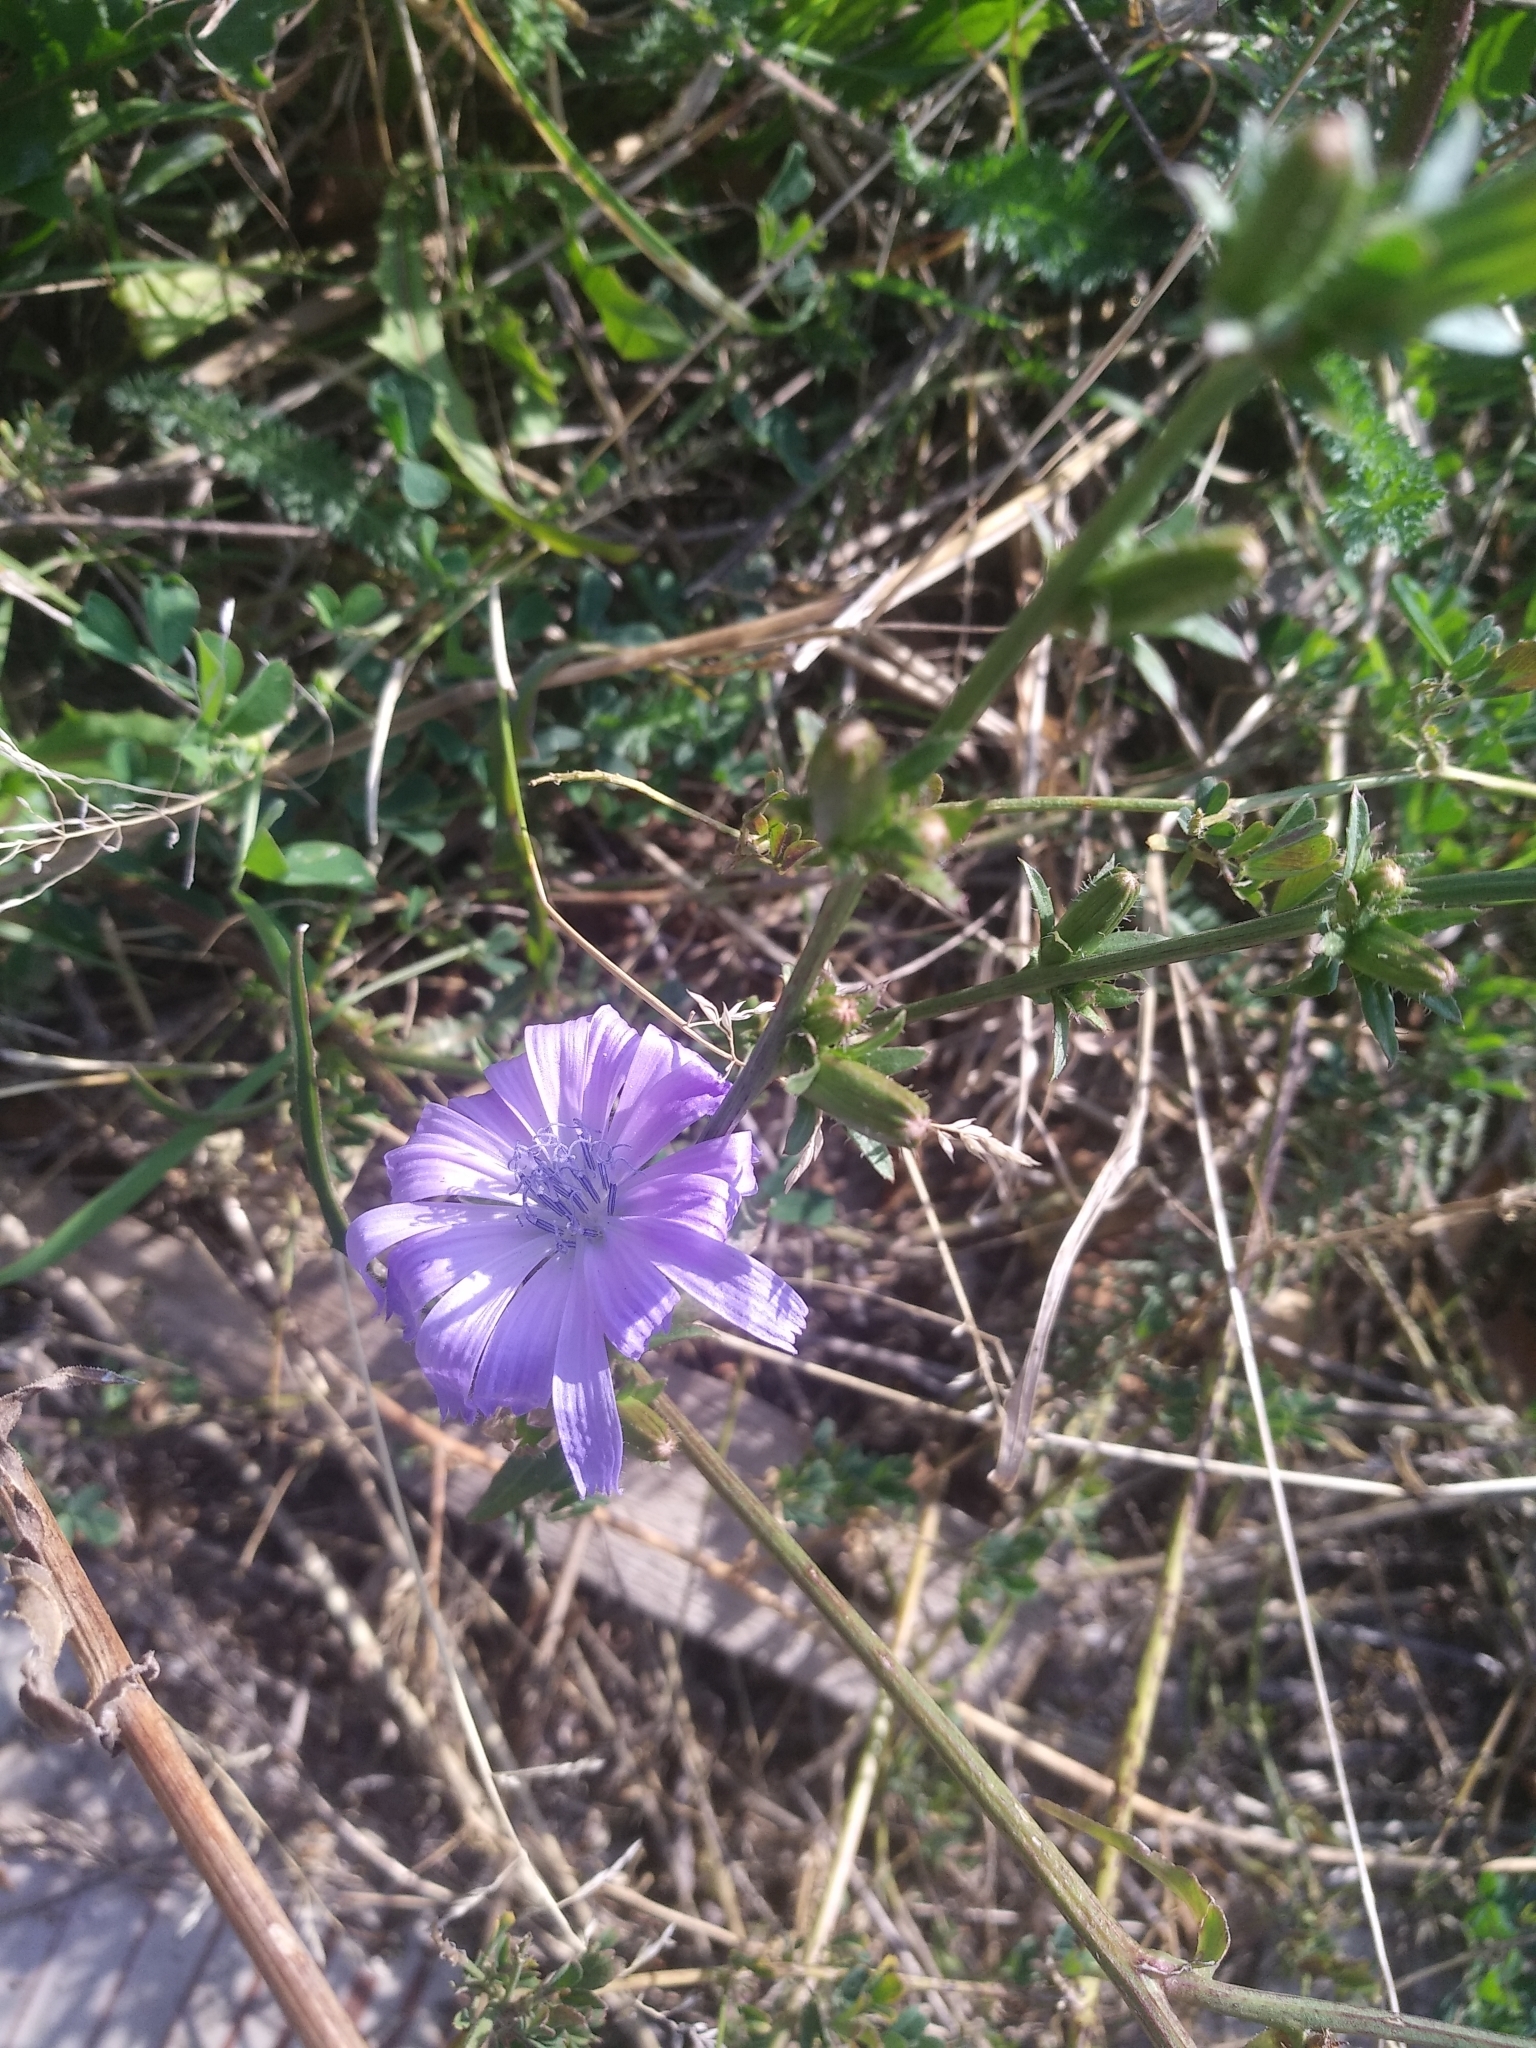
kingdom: Plantae
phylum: Tracheophyta
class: Magnoliopsida
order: Asterales
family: Asteraceae
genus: Cichorium
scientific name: Cichorium intybus
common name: Chicory
